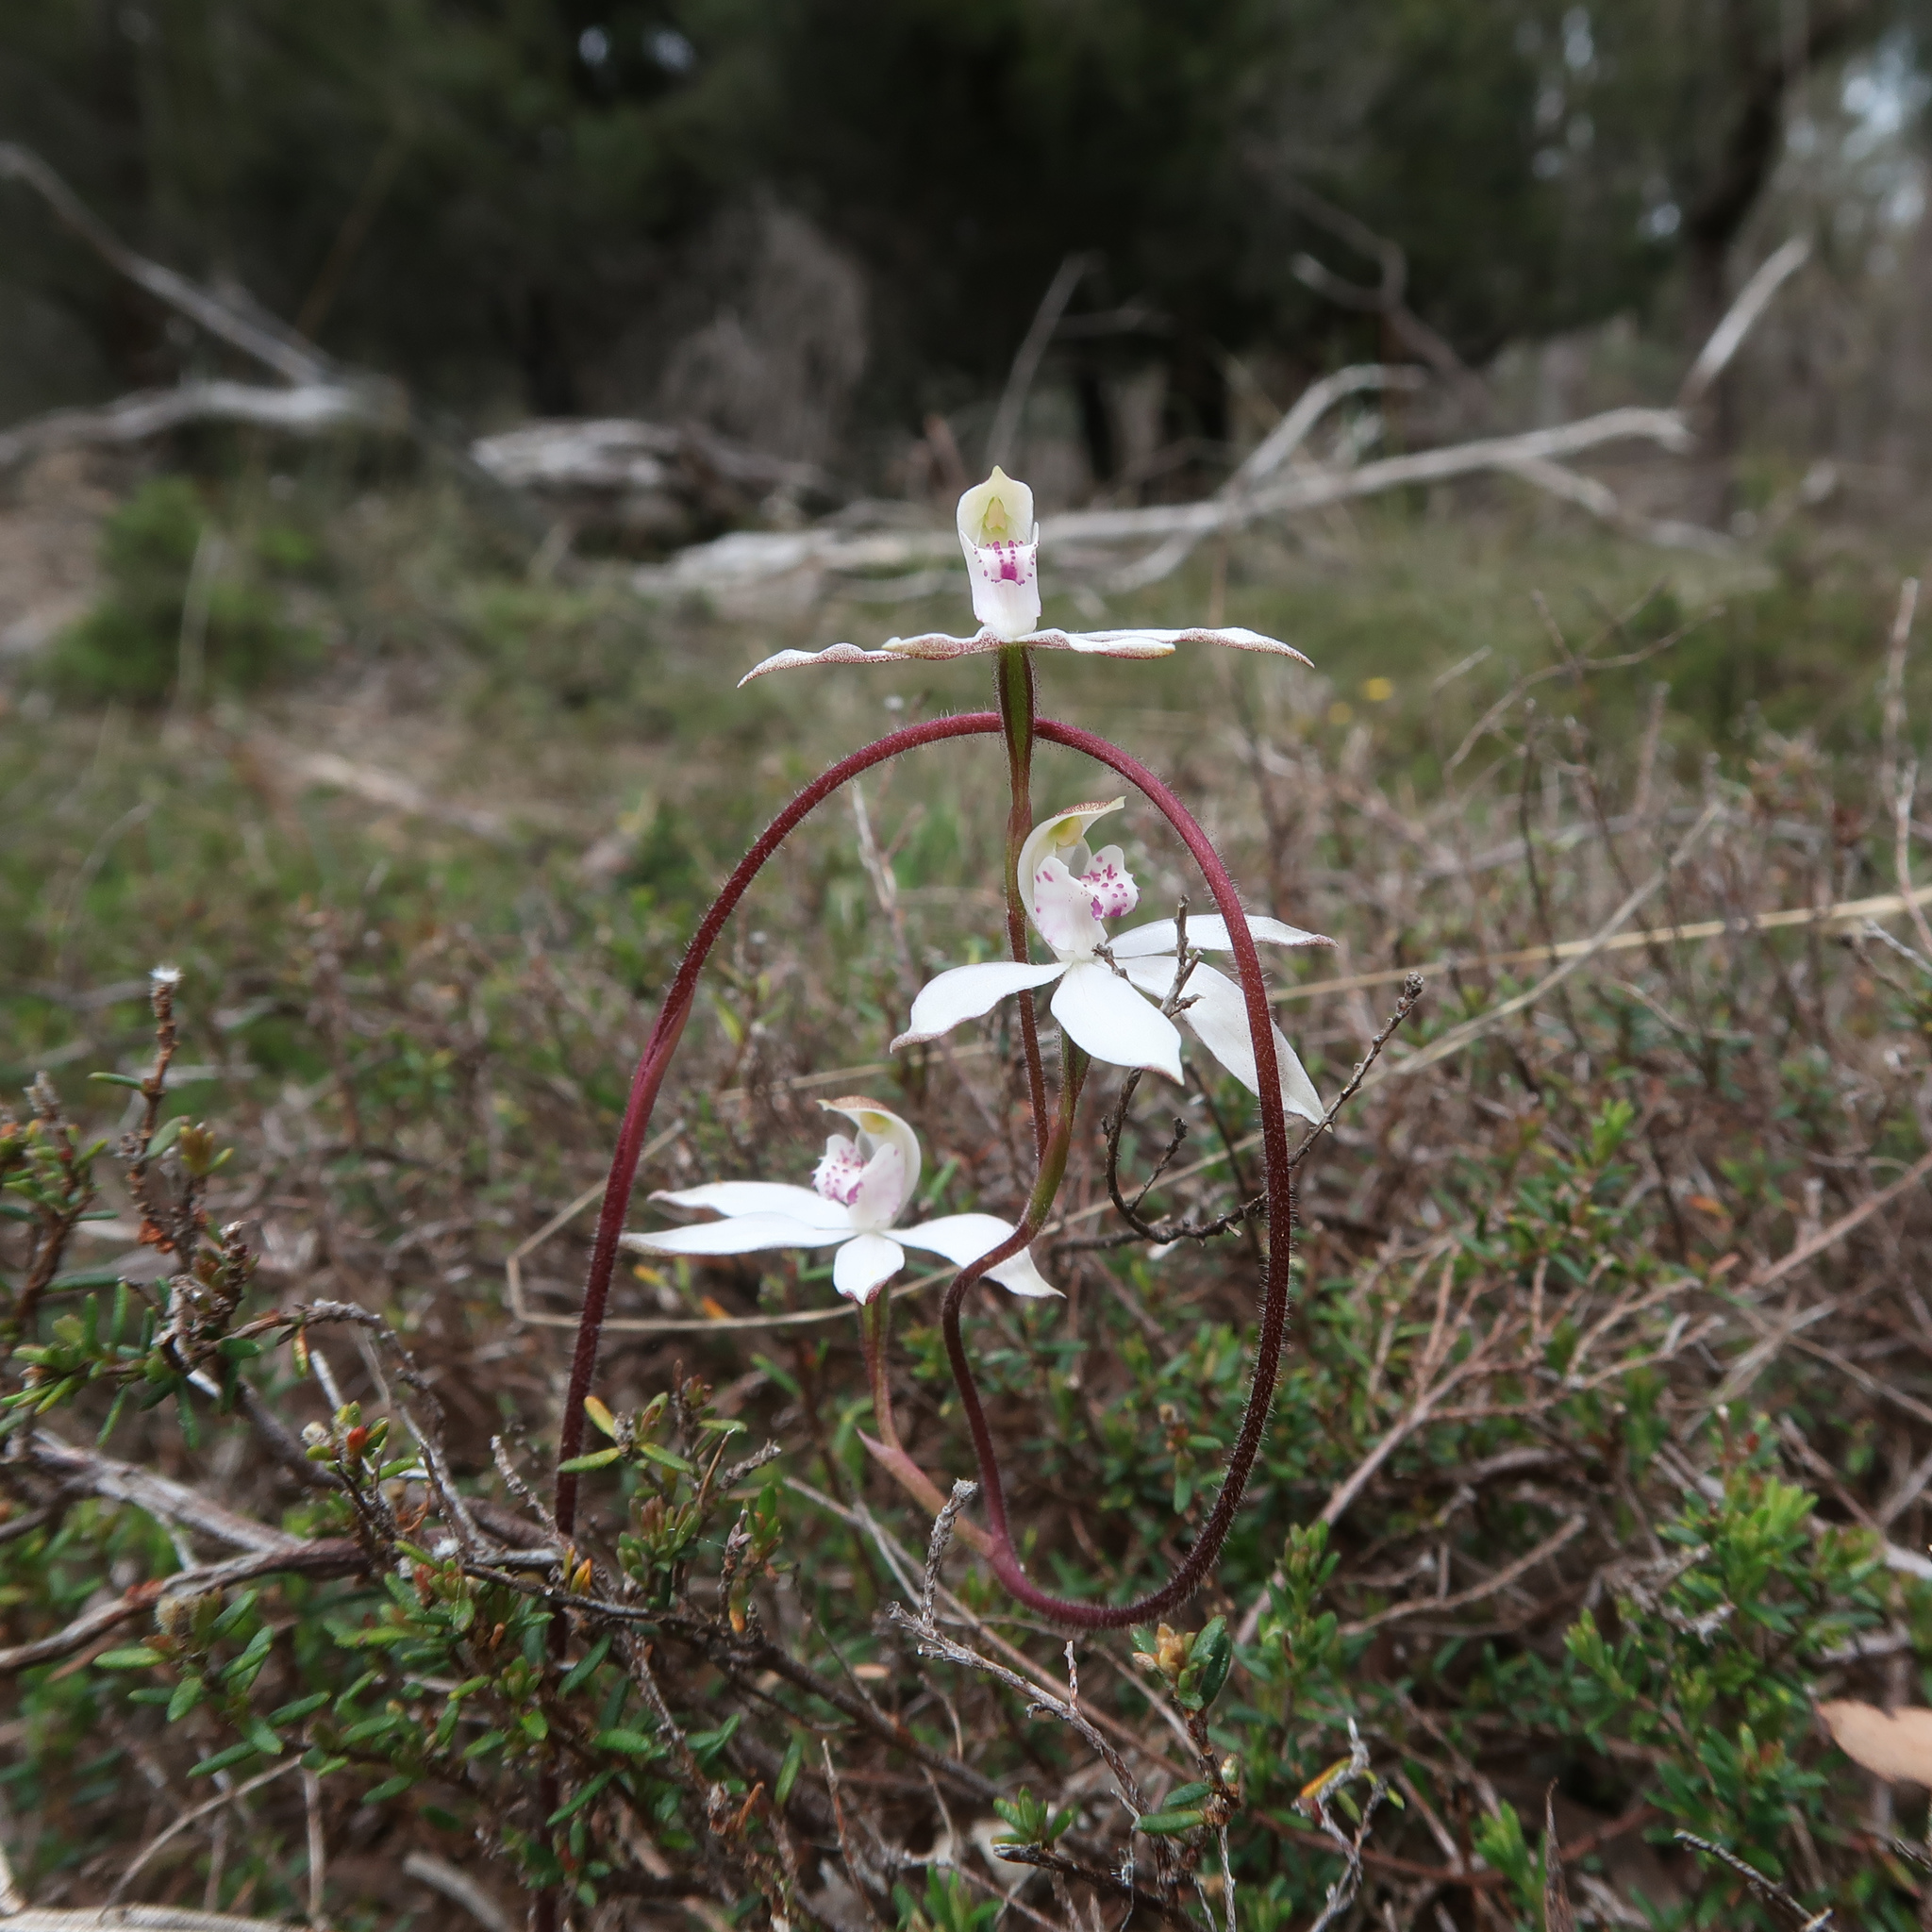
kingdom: Plantae
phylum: Tracheophyta
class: Liliopsida
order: Asparagales
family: Orchidaceae
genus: Caladenia
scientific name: Caladenia gracilis
